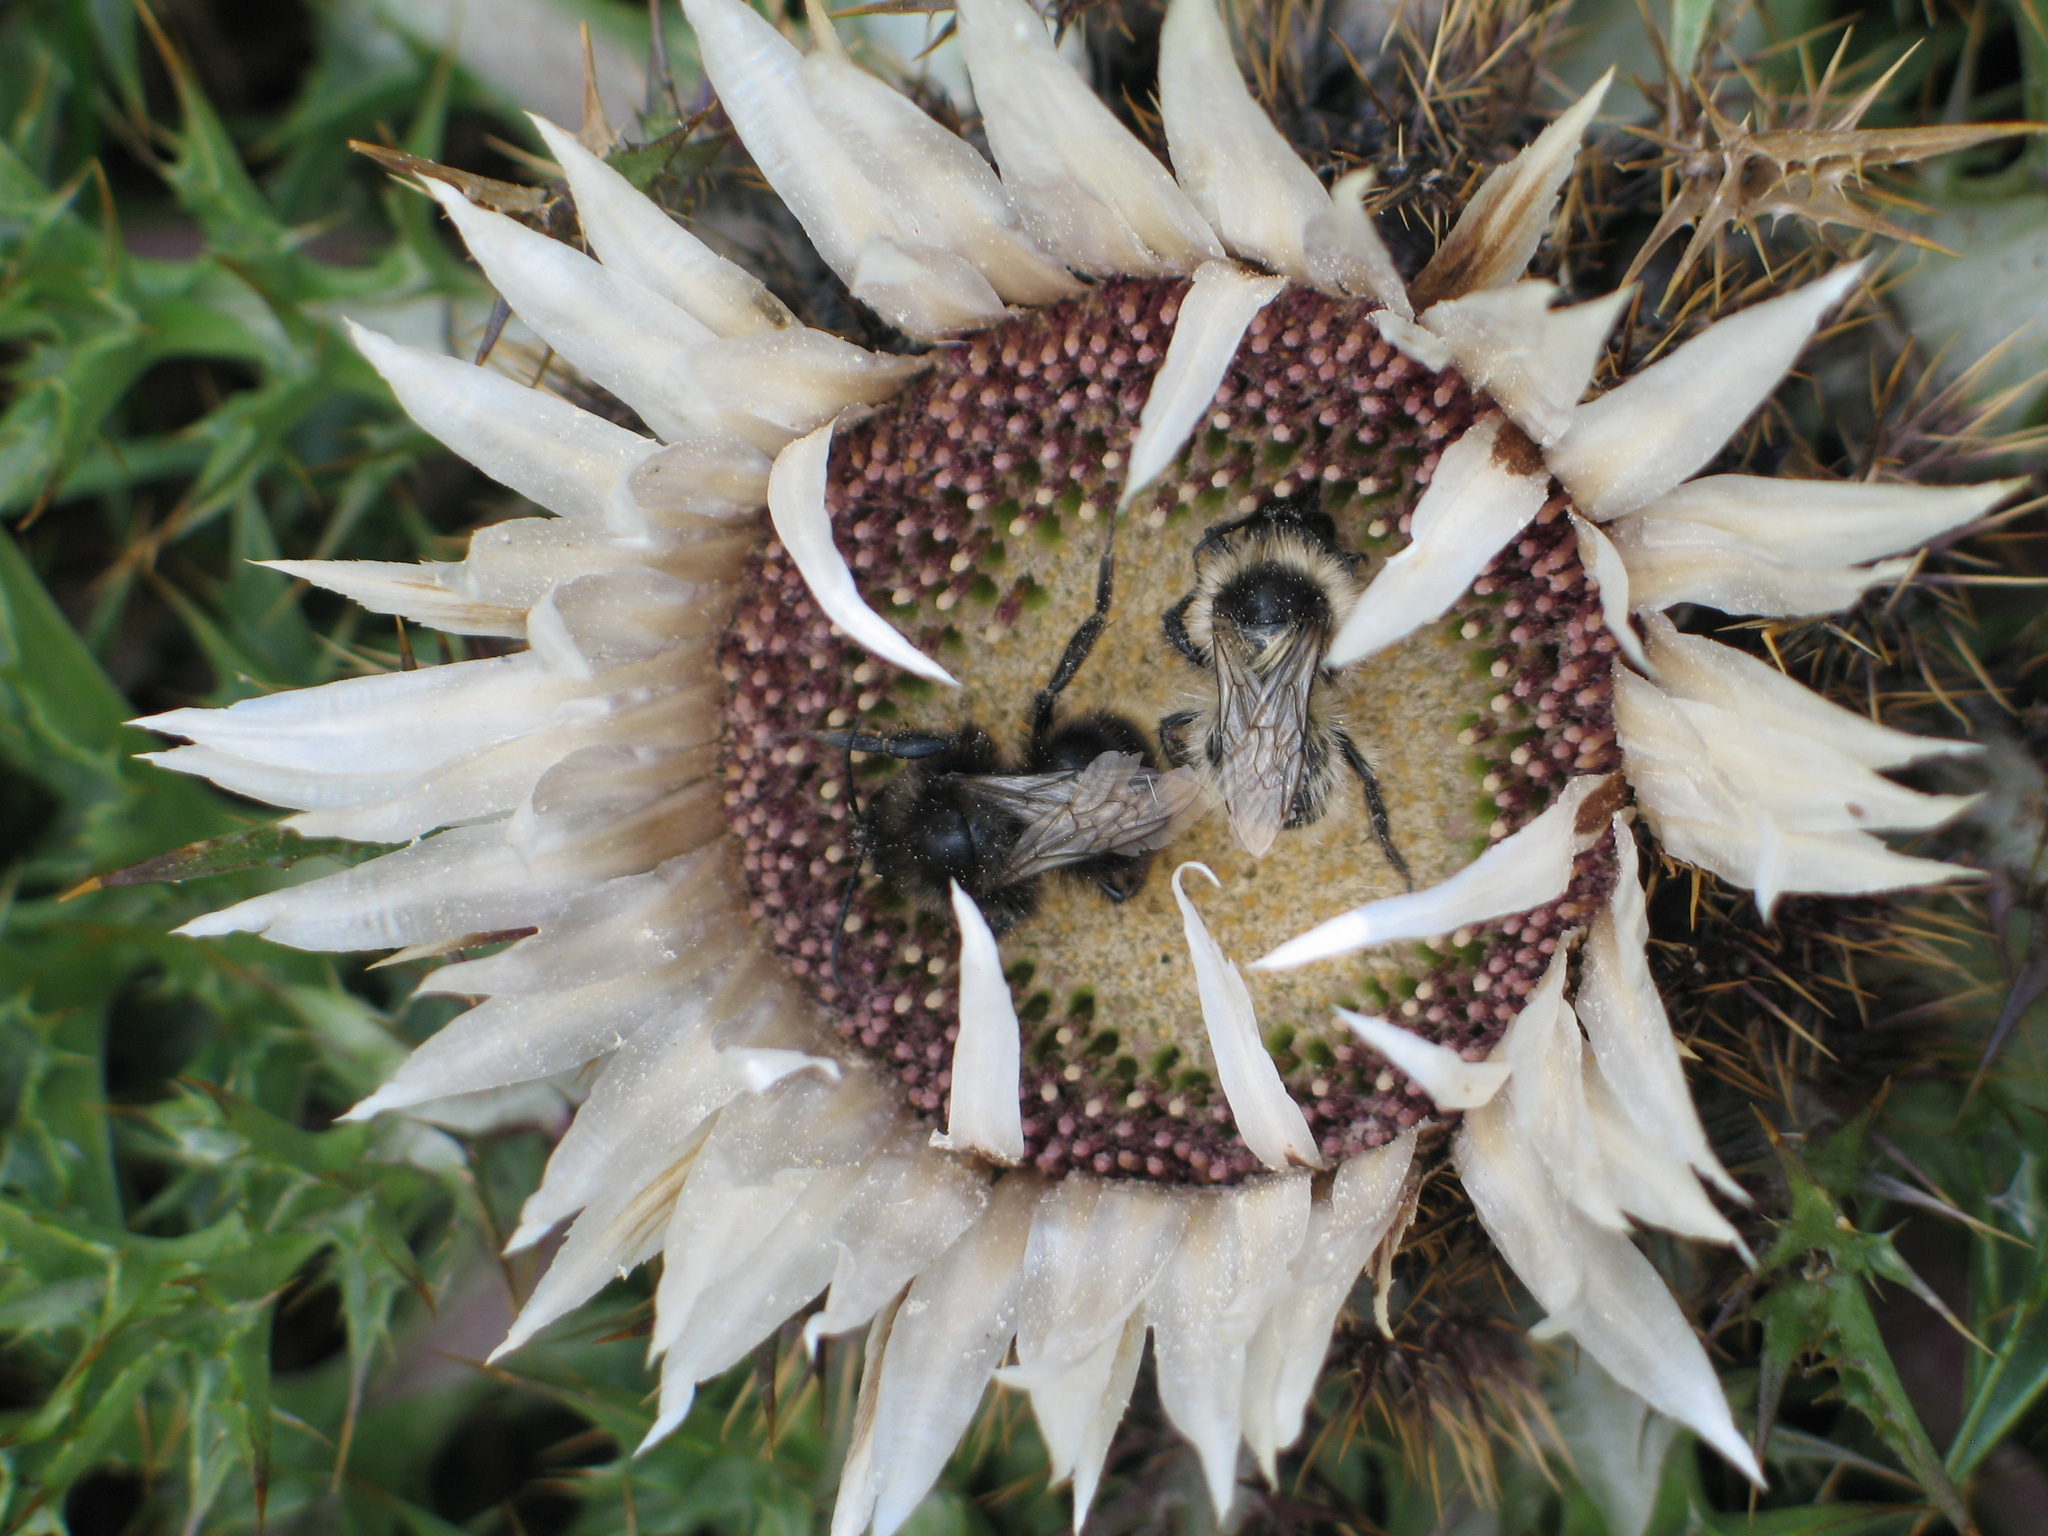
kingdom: Plantae
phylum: Tracheophyta
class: Magnoliopsida
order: Asterales
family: Asteraceae
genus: Carlina
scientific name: Carlina acaulis
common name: Stemless carline thistle
